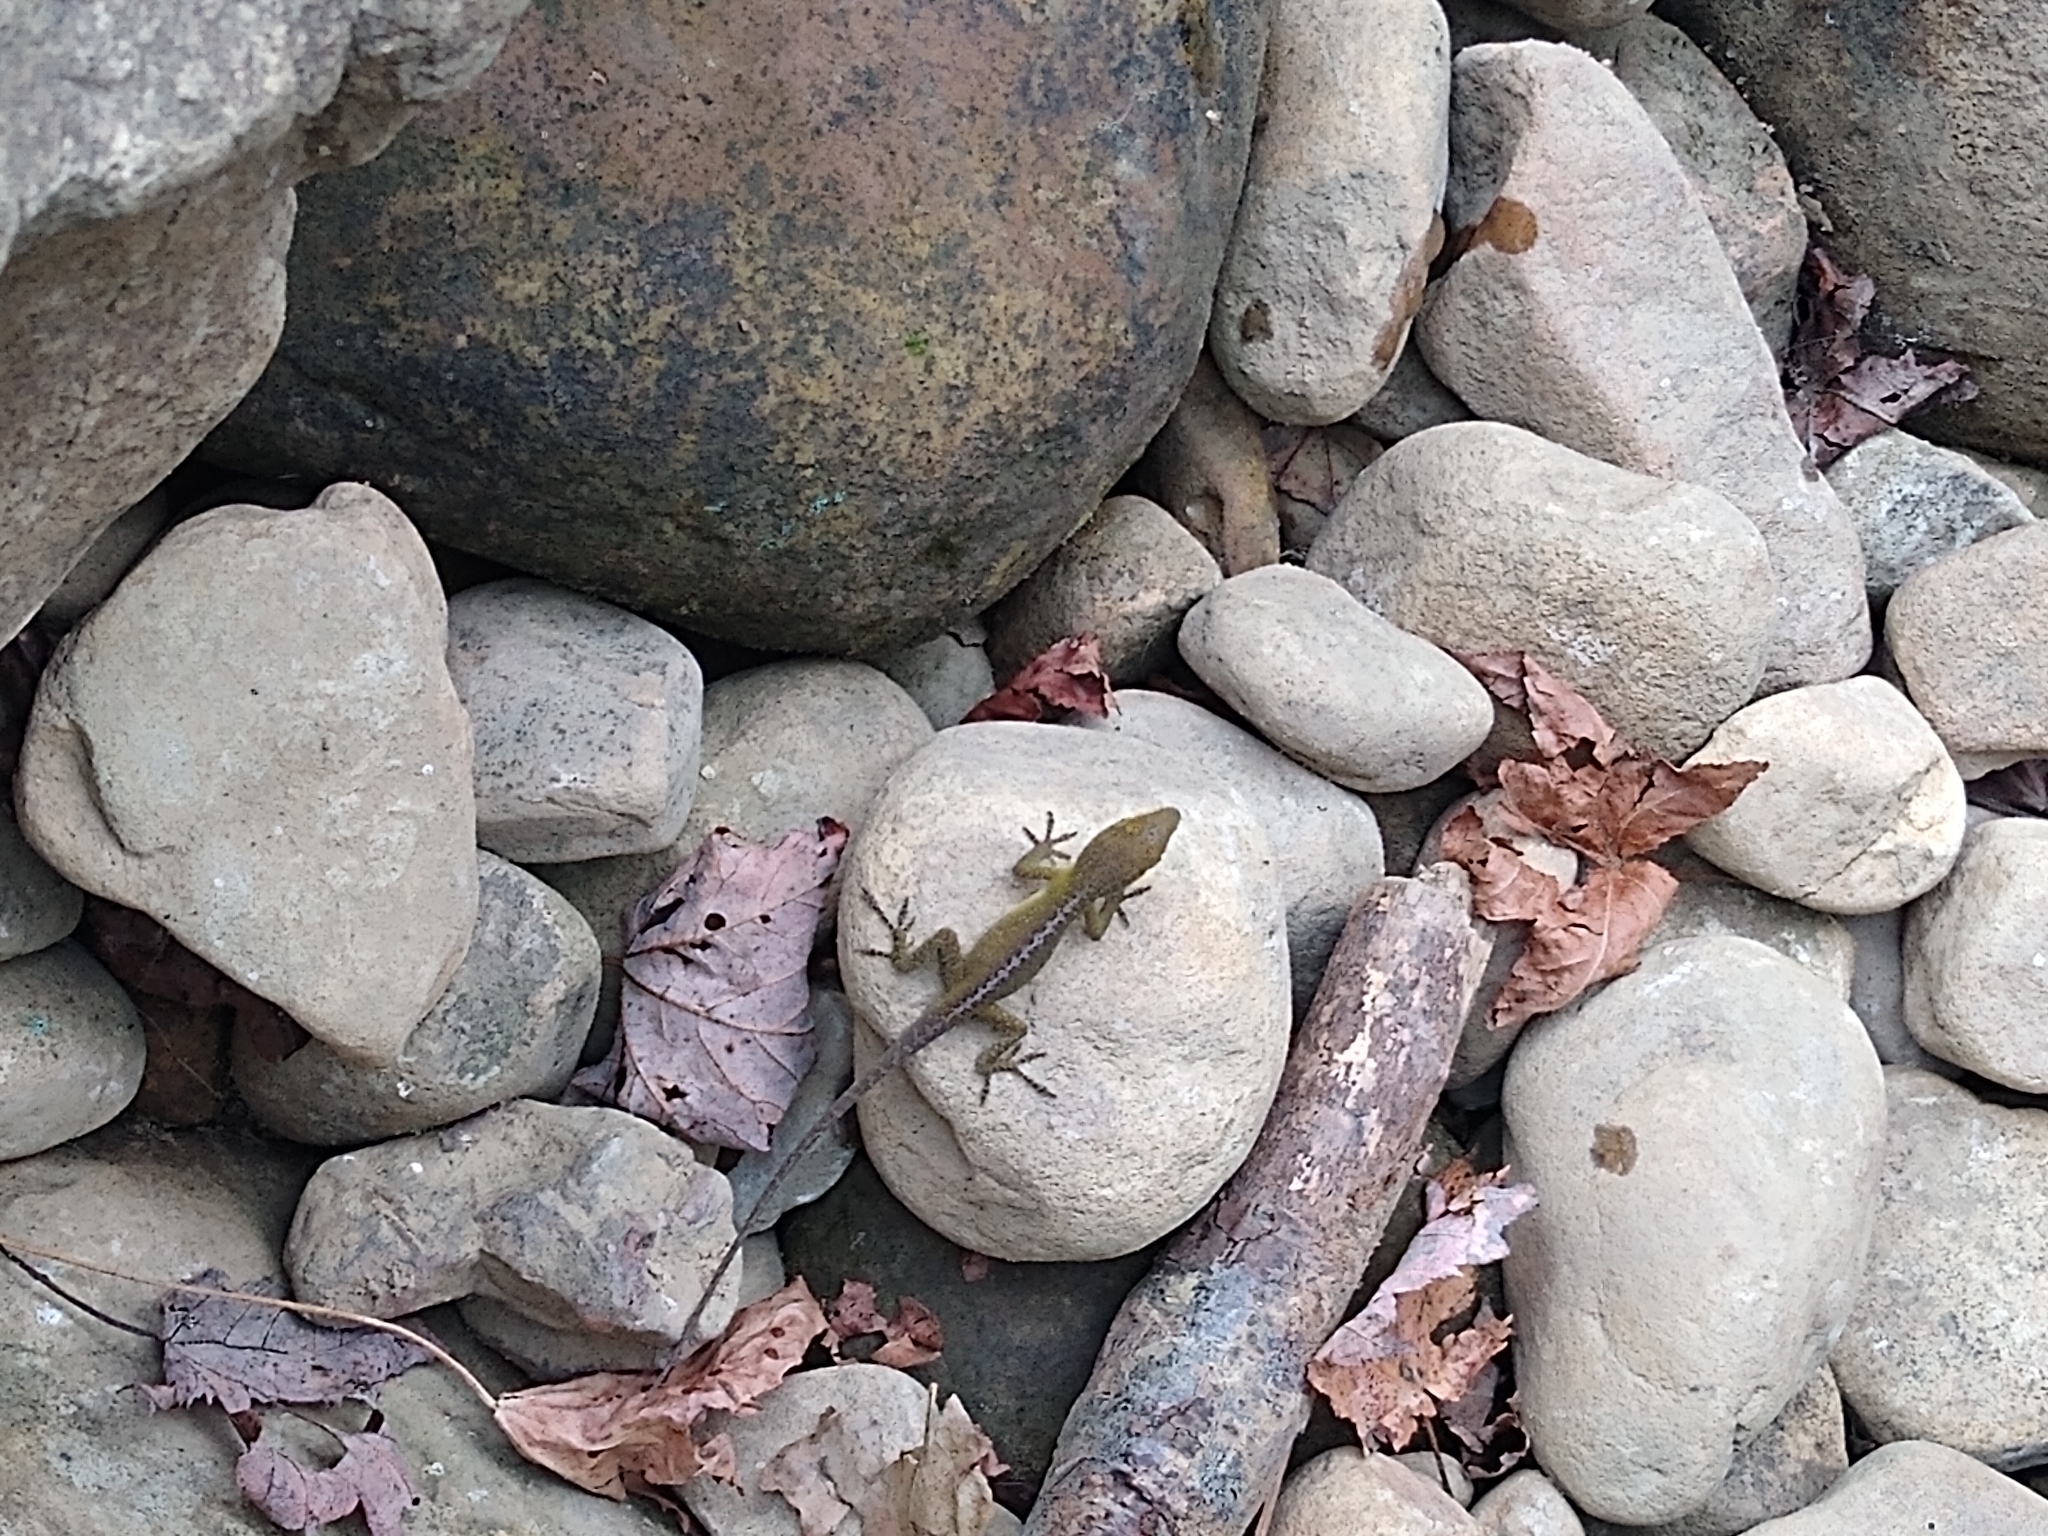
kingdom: Animalia
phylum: Chordata
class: Squamata
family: Dactyloidae
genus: Anolis
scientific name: Anolis carolinensis
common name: Green anole
